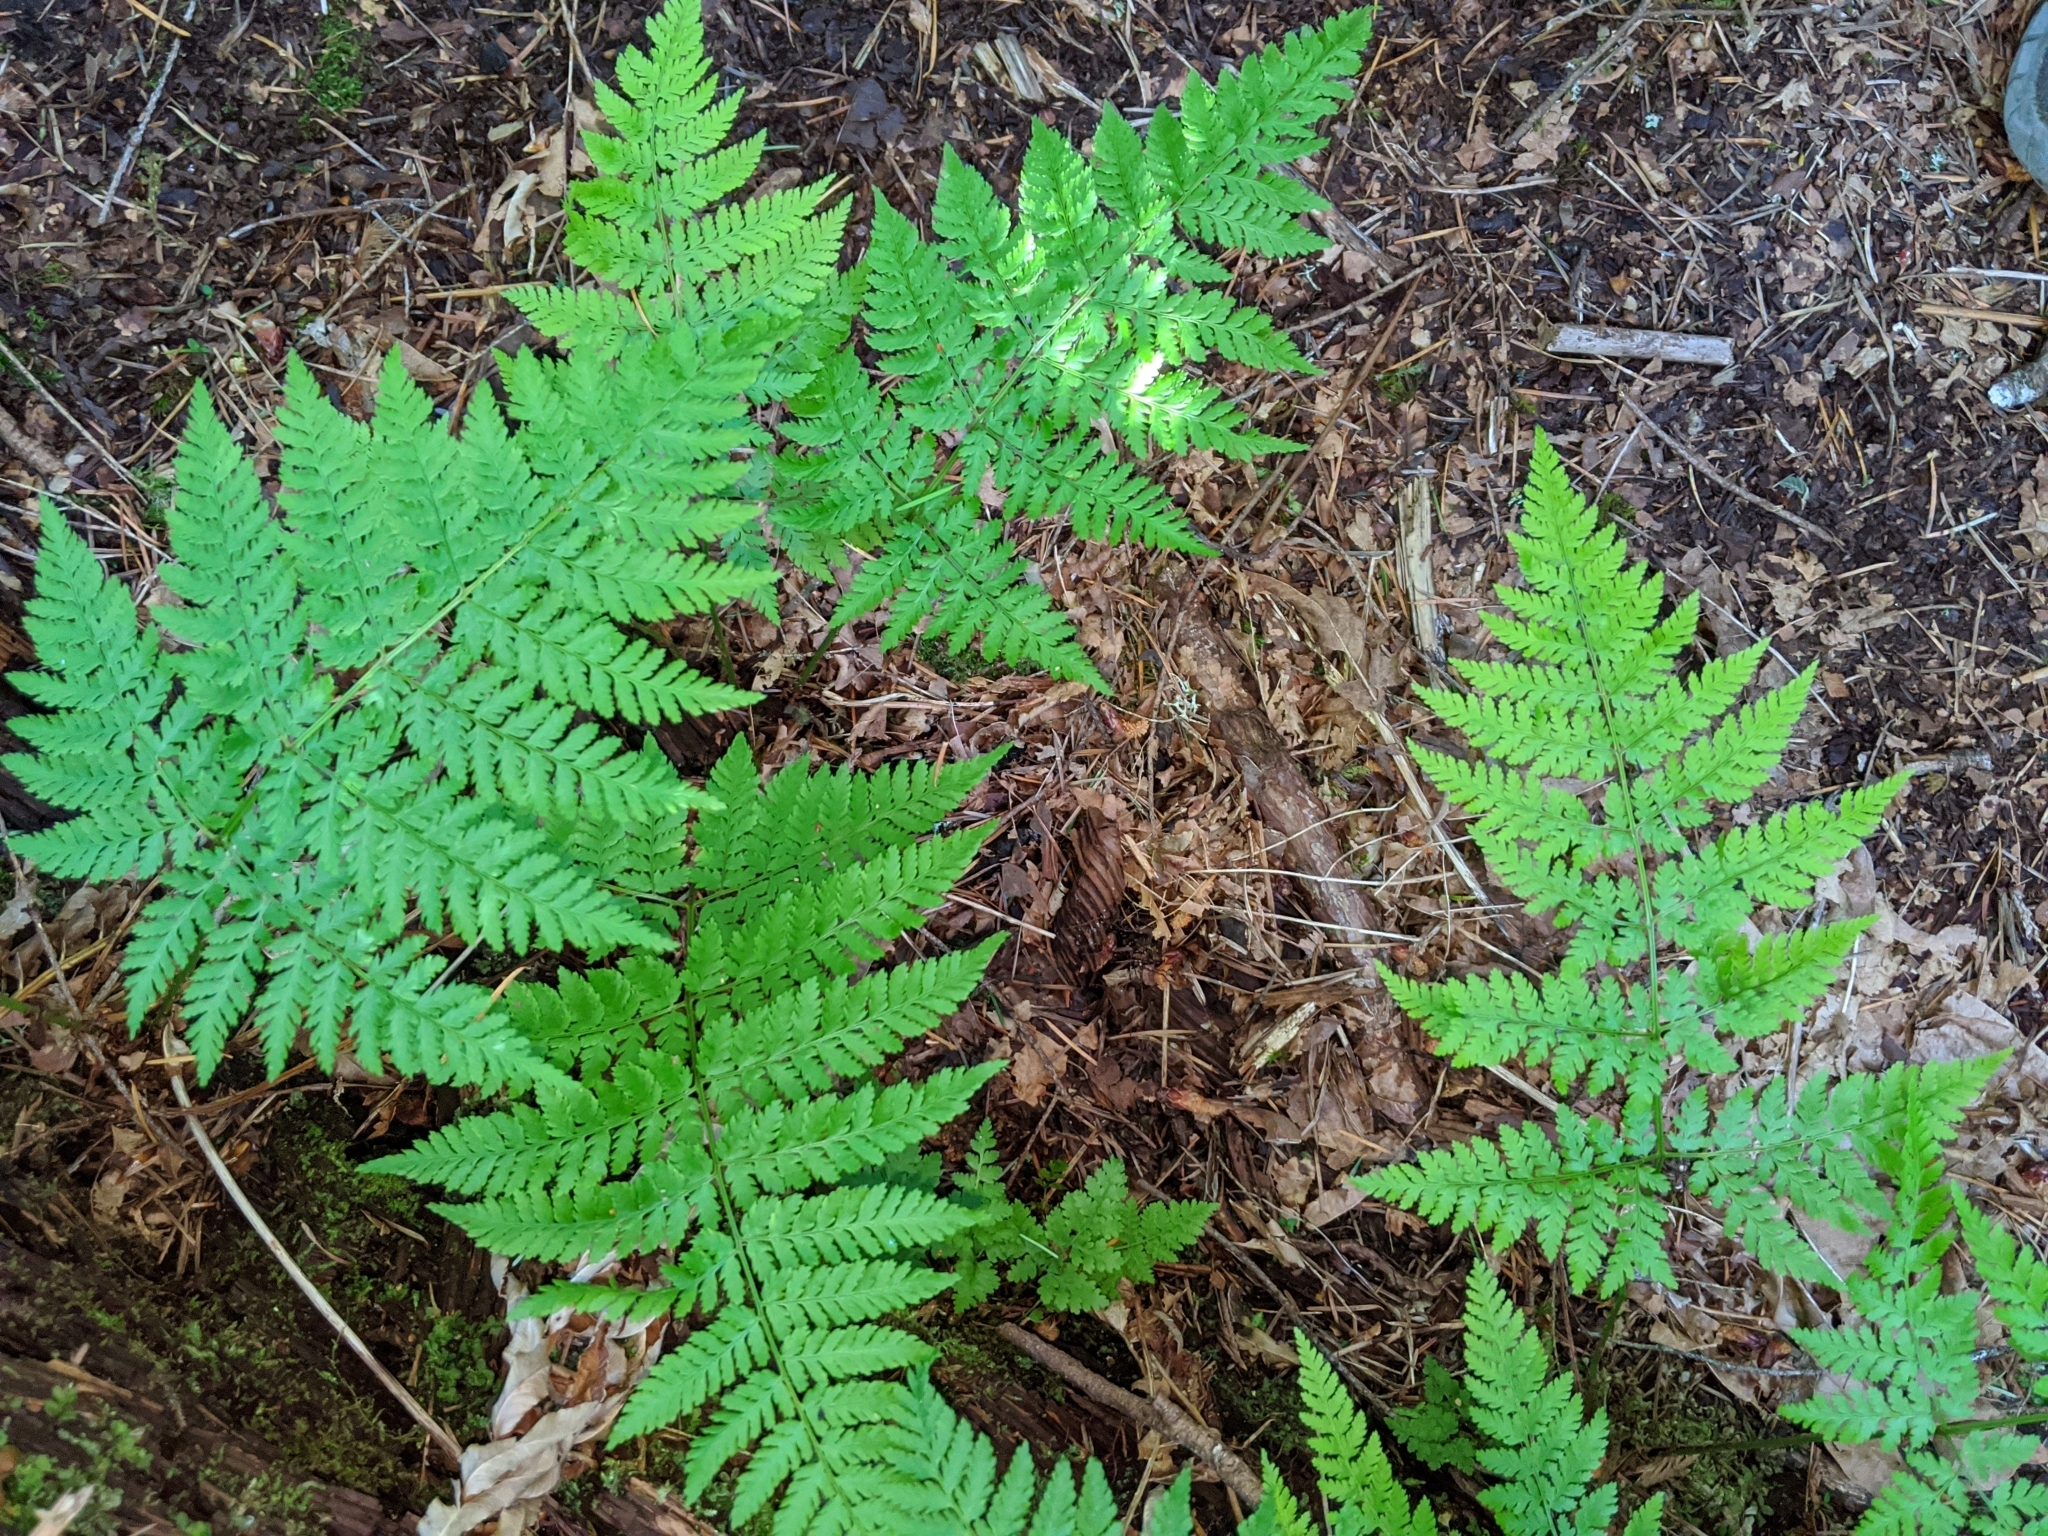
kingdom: Plantae
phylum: Tracheophyta
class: Polypodiopsida
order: Polypodiales
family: Dryopteridaceae
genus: Dryopteris
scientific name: Dryopteris expansa
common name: Northern buckler fern
